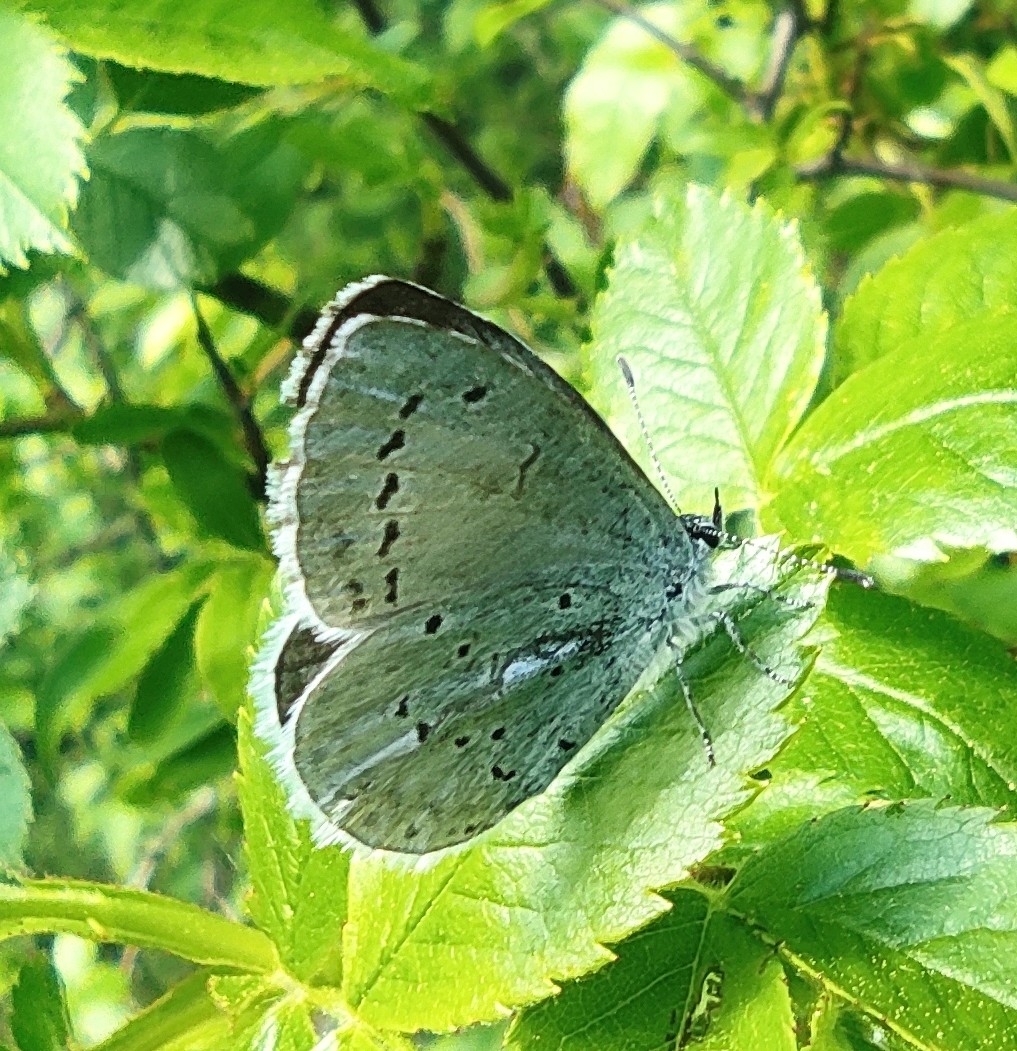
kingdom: Animalia
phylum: Arthropoda
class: Insecta
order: Lepidoptera
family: Lycaenidae
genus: Celastrina
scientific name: Celastrina argiolus
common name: Holly blue
